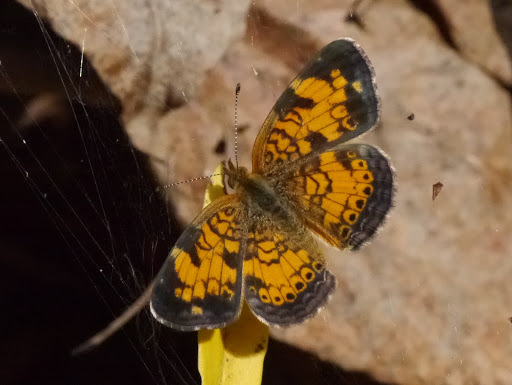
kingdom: Animalia
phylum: Arthropoda
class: Insecta
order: Lepidoptera
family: Nymphalidae
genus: Phyciodes
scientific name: Phyciodes tharos
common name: Pearl crescent
